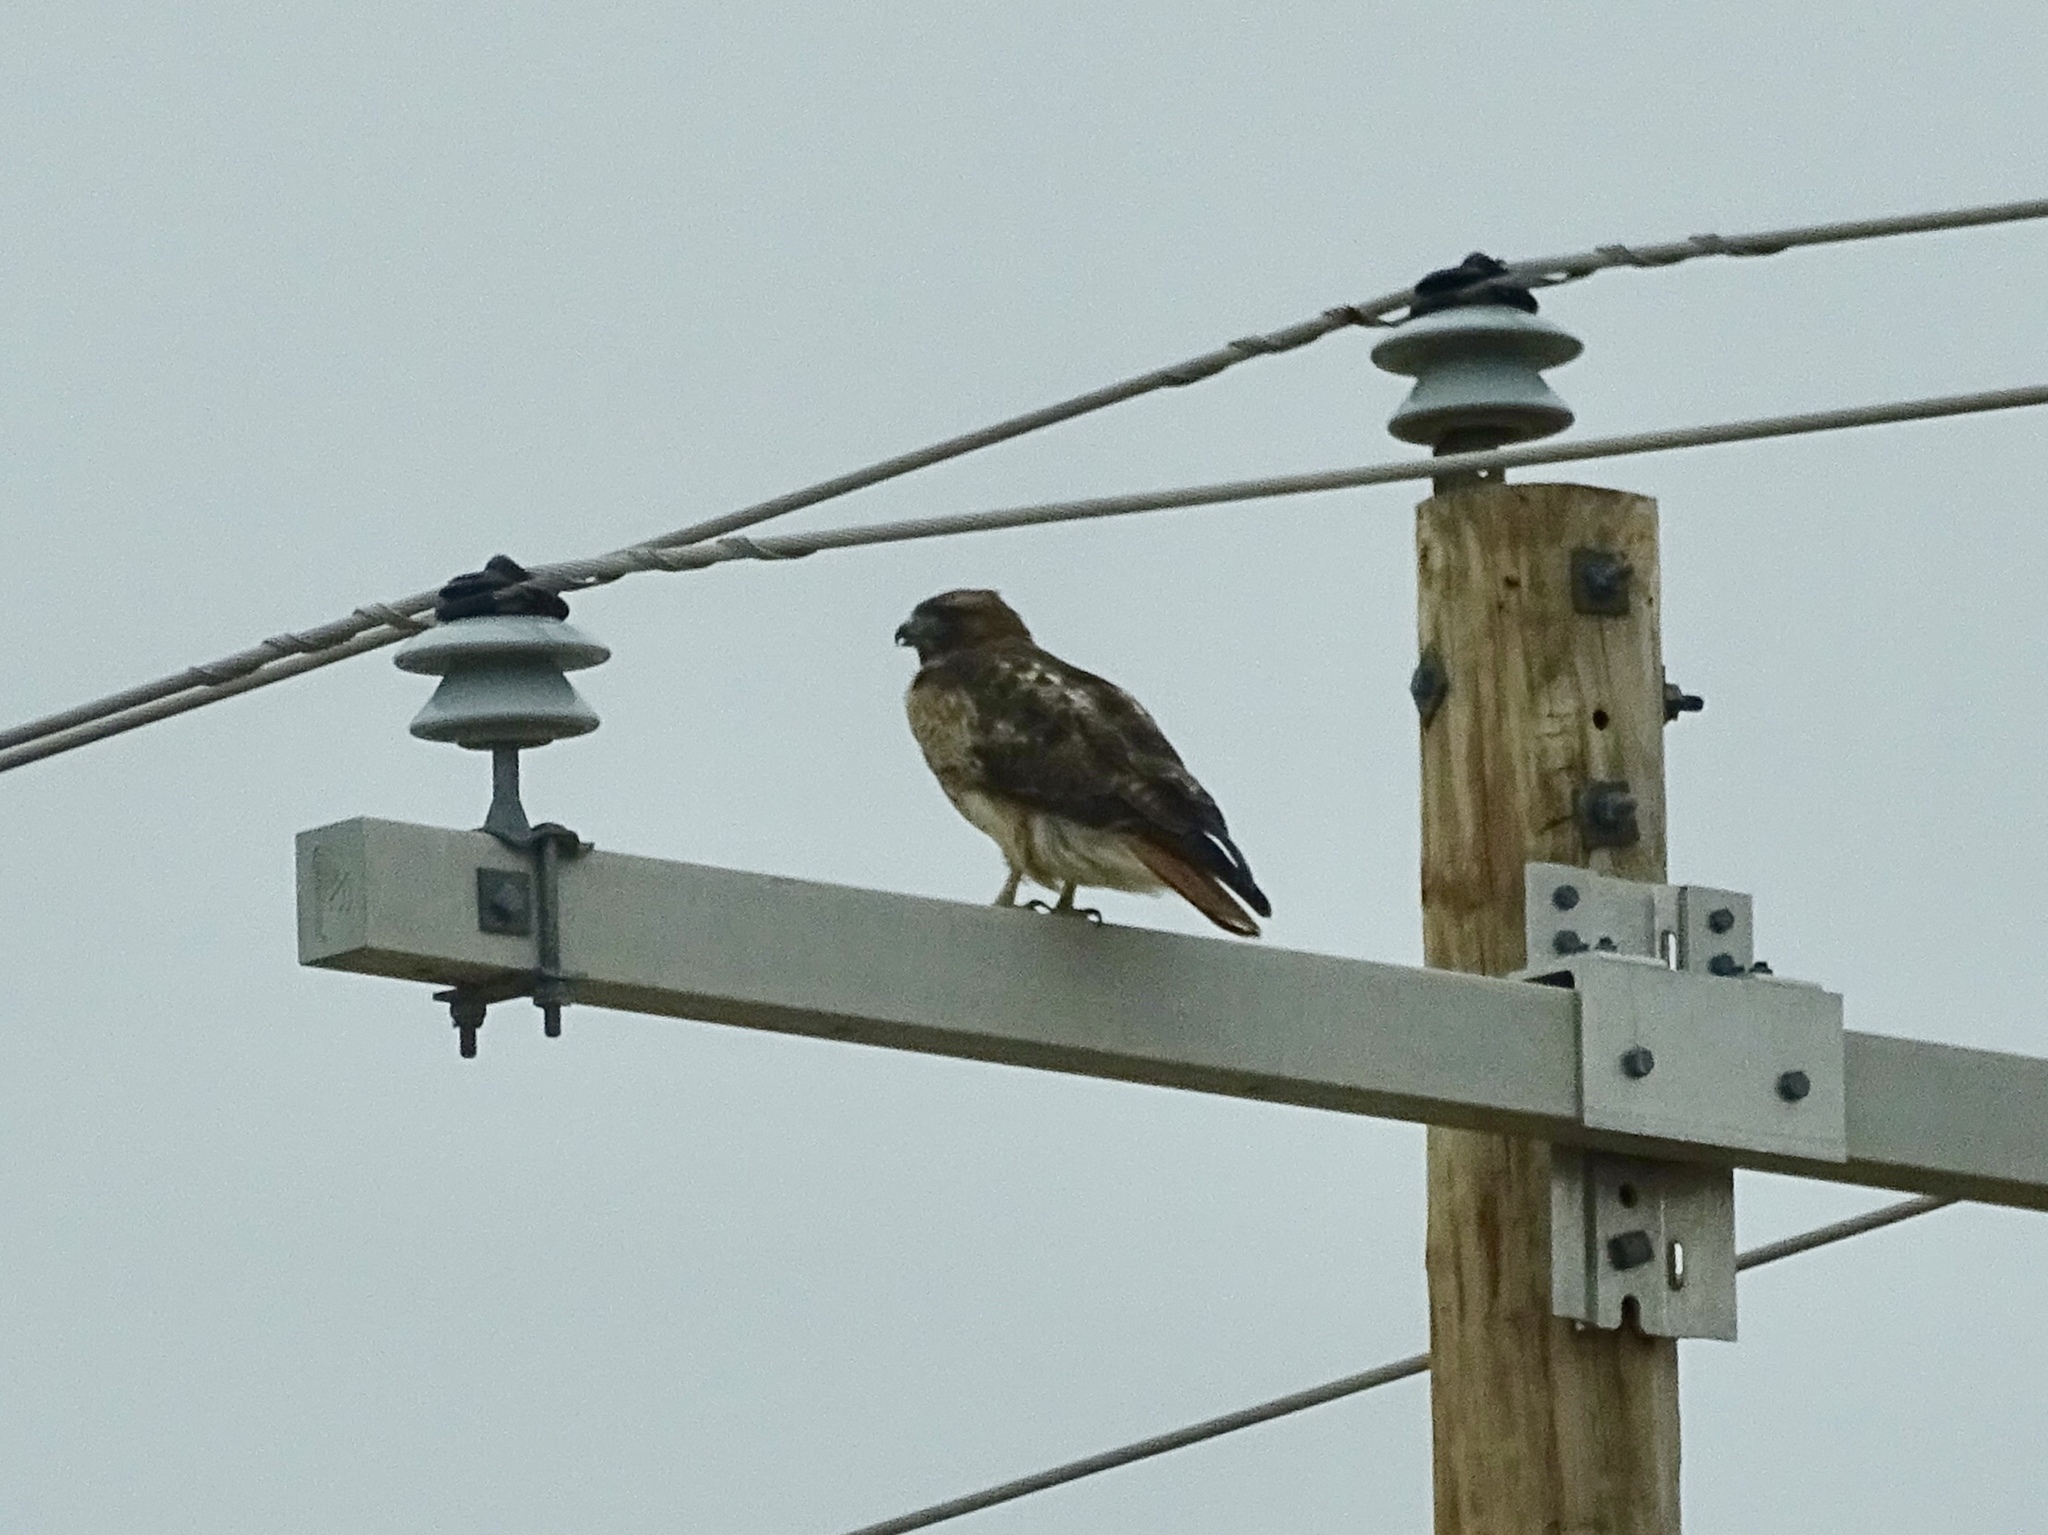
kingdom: Animalia
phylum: Chordata
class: Aves
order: Accipitriformes
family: Accipitridae
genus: Buteo
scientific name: Buteo jamaicensis
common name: Red-tailed hawk
